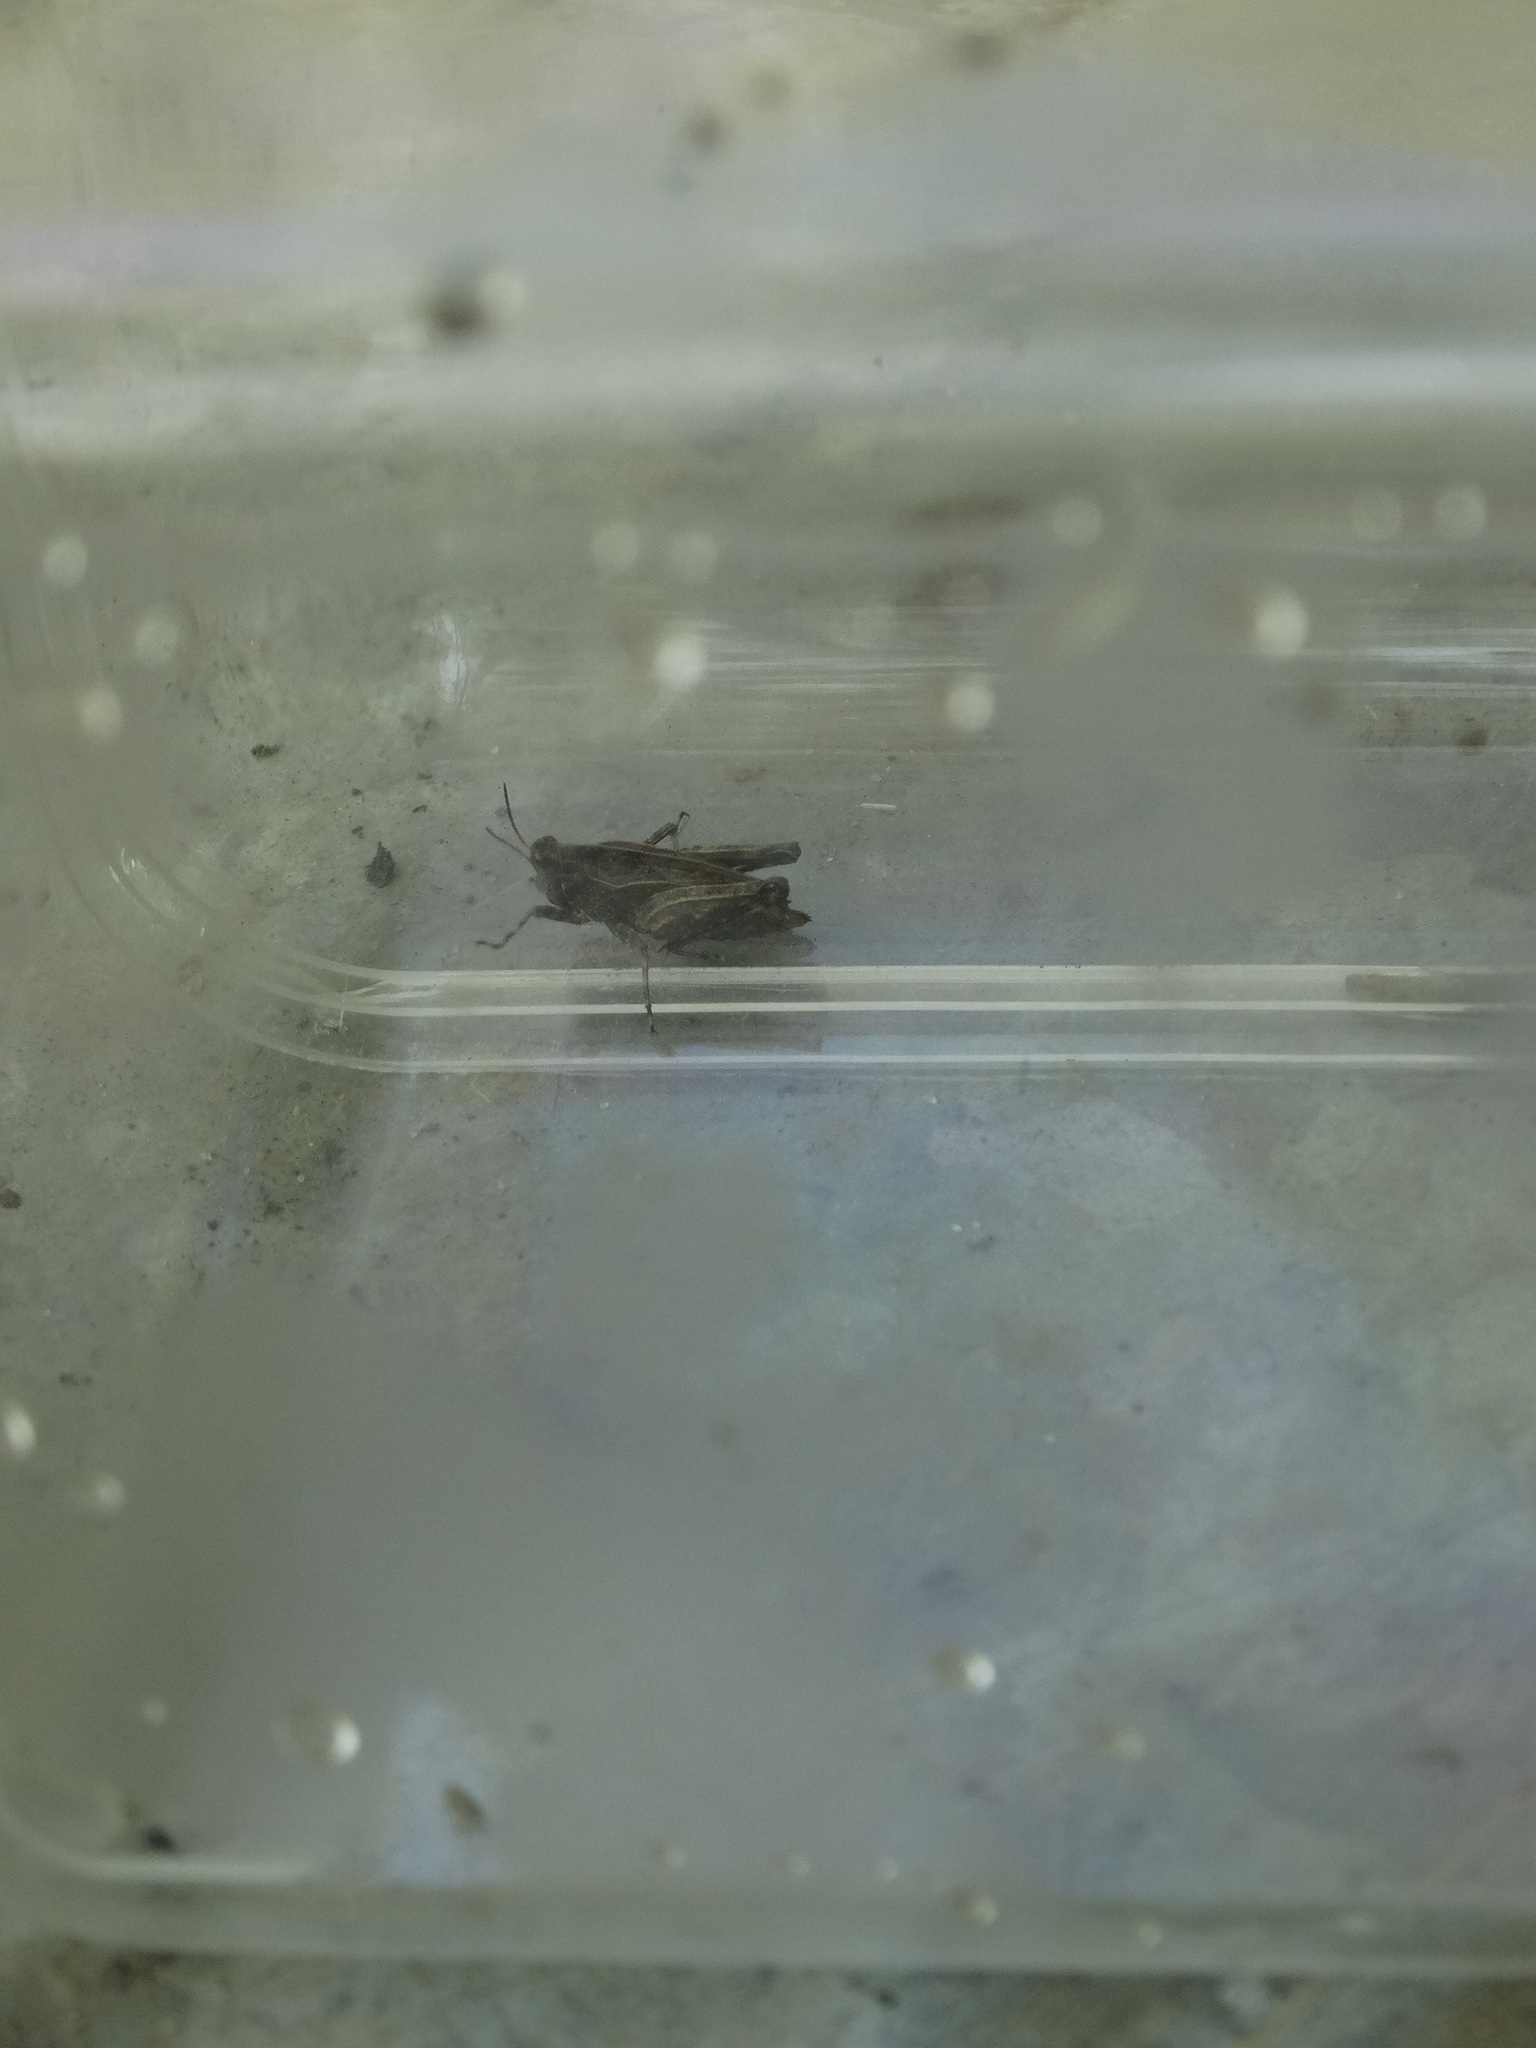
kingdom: Animalia
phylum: Arthropoda
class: Insecta
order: Orthoptera
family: Tetrigidae
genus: Tetrix
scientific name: Tetrix undulata
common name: Common groundhopper
